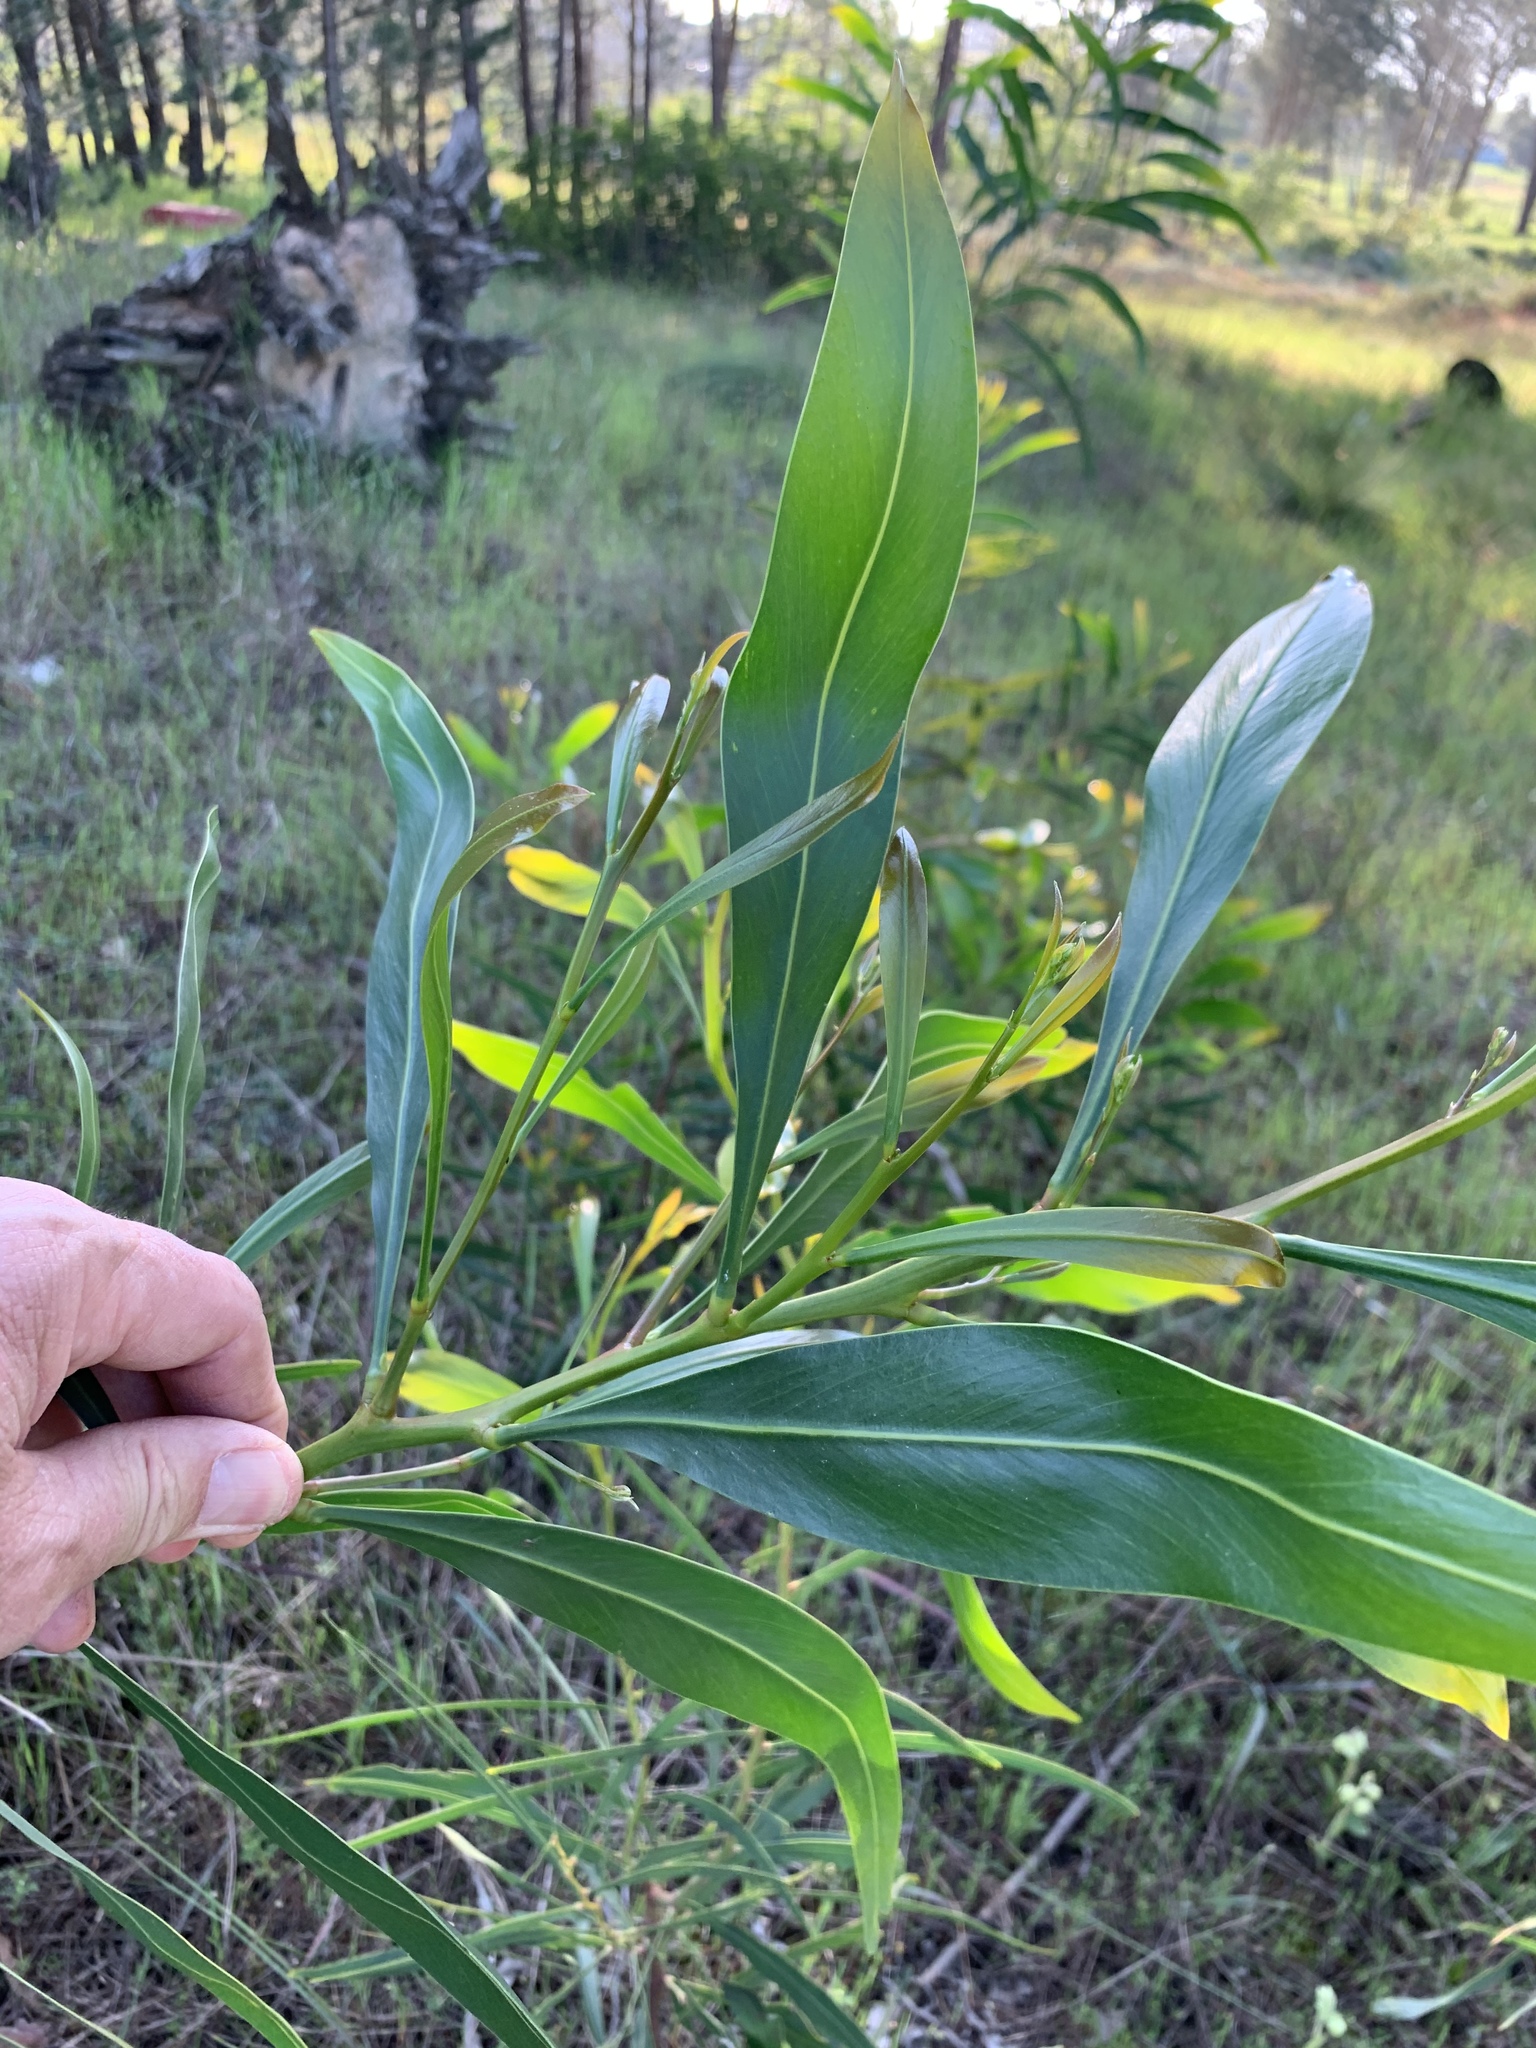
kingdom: Plantae
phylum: Tracheophyta
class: Magnoliopsida
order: Fabales
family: Fabaceae
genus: Acacia
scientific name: Acacia saligna
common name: Orange wattle
